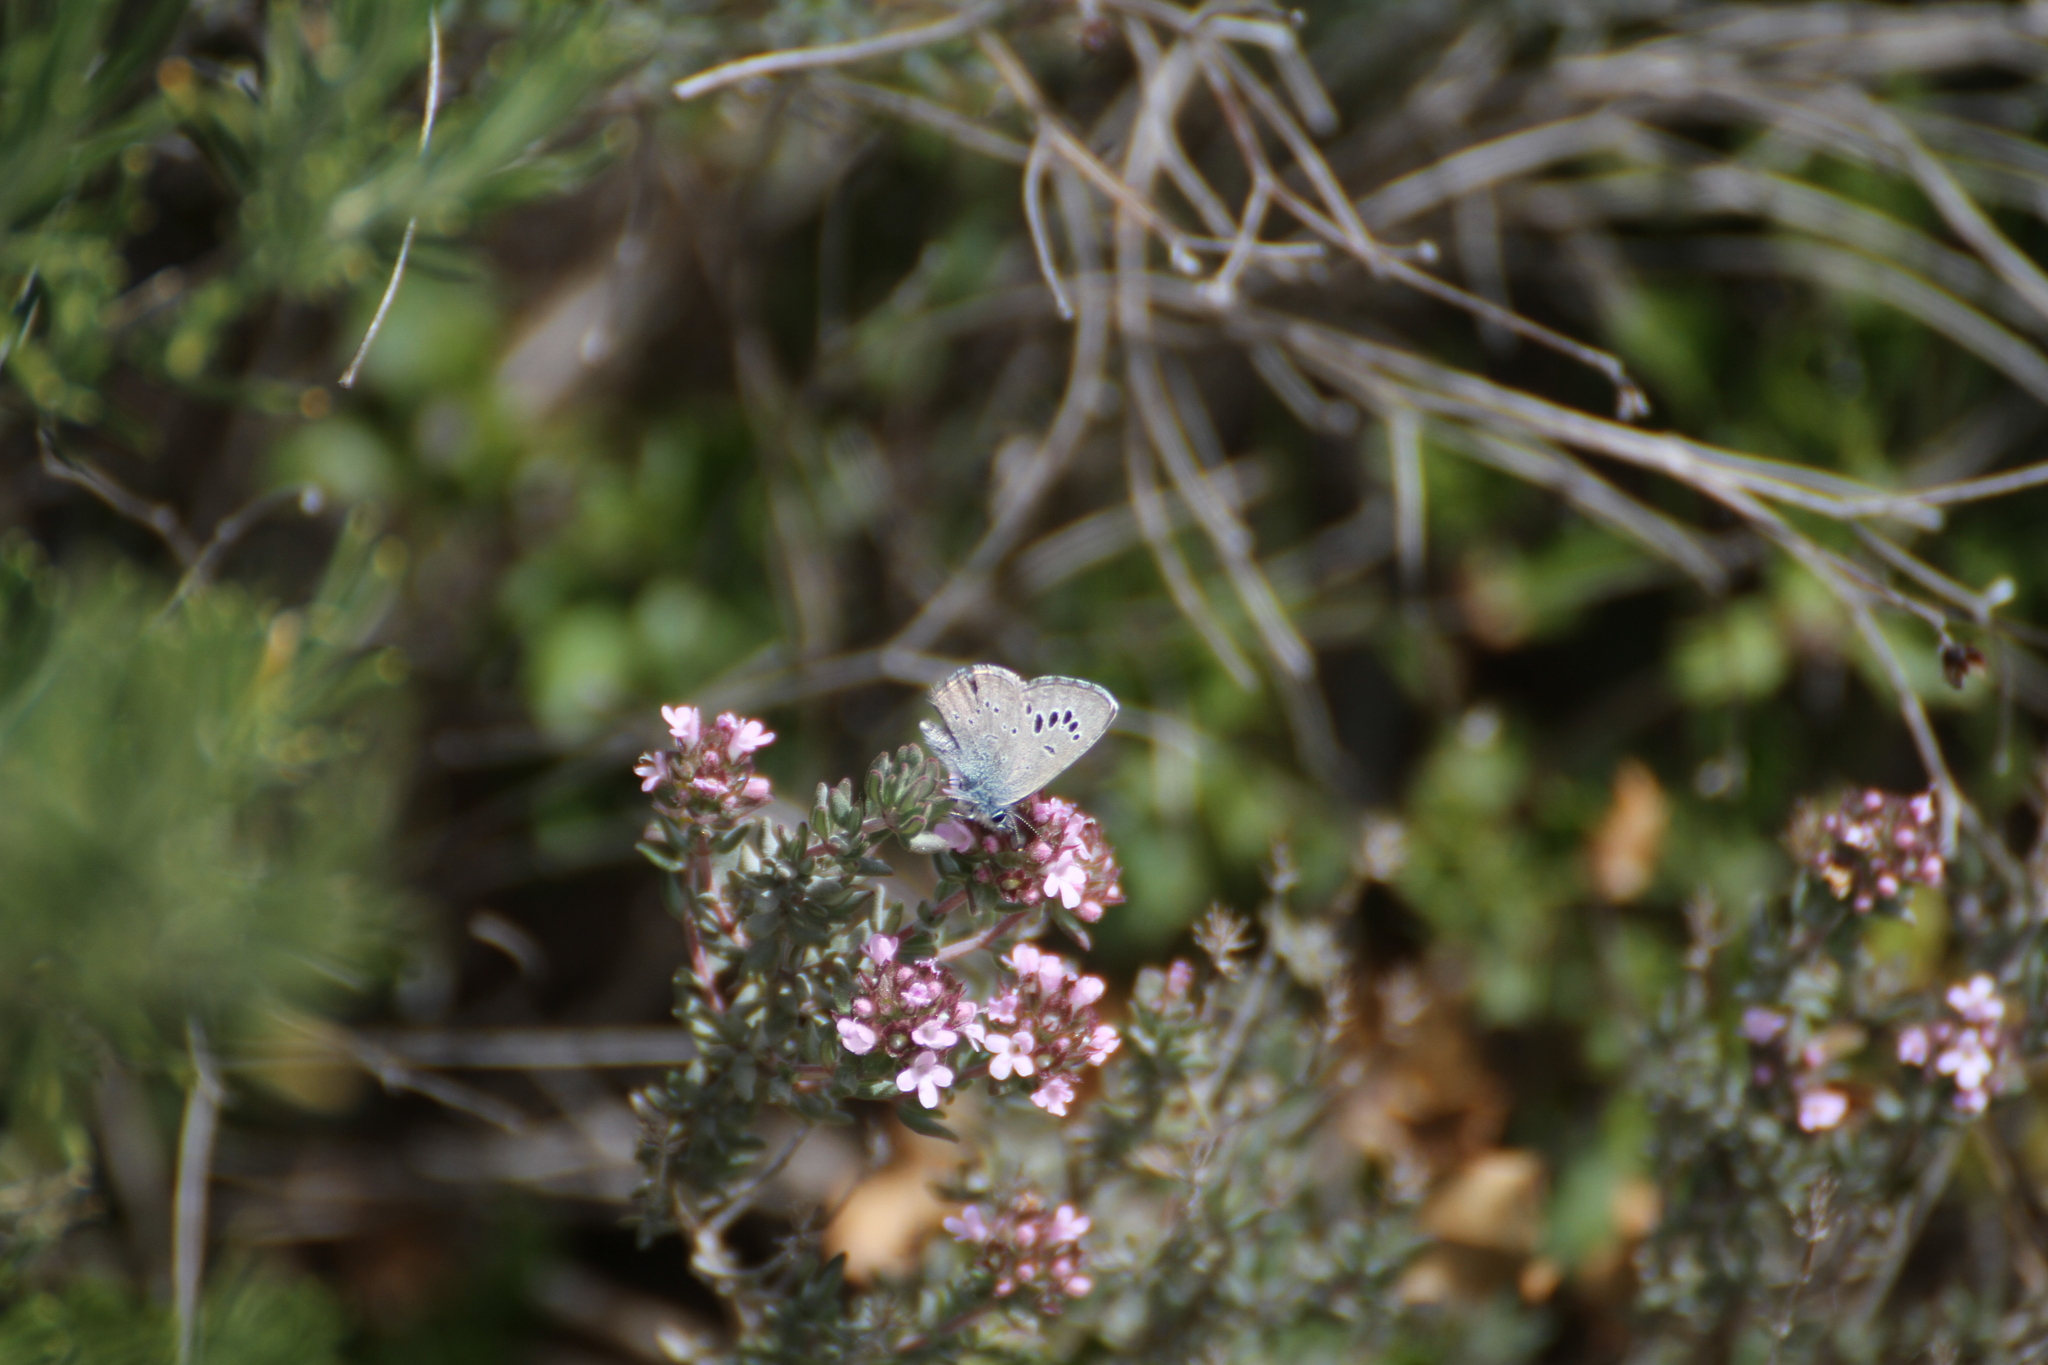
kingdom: Animalia
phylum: Arthropoda
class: Insecta
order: Lepidoptera
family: Lycaenidae
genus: Glaucopsyche
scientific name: Glaucopsyche melanops
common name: Black-eyed blue
